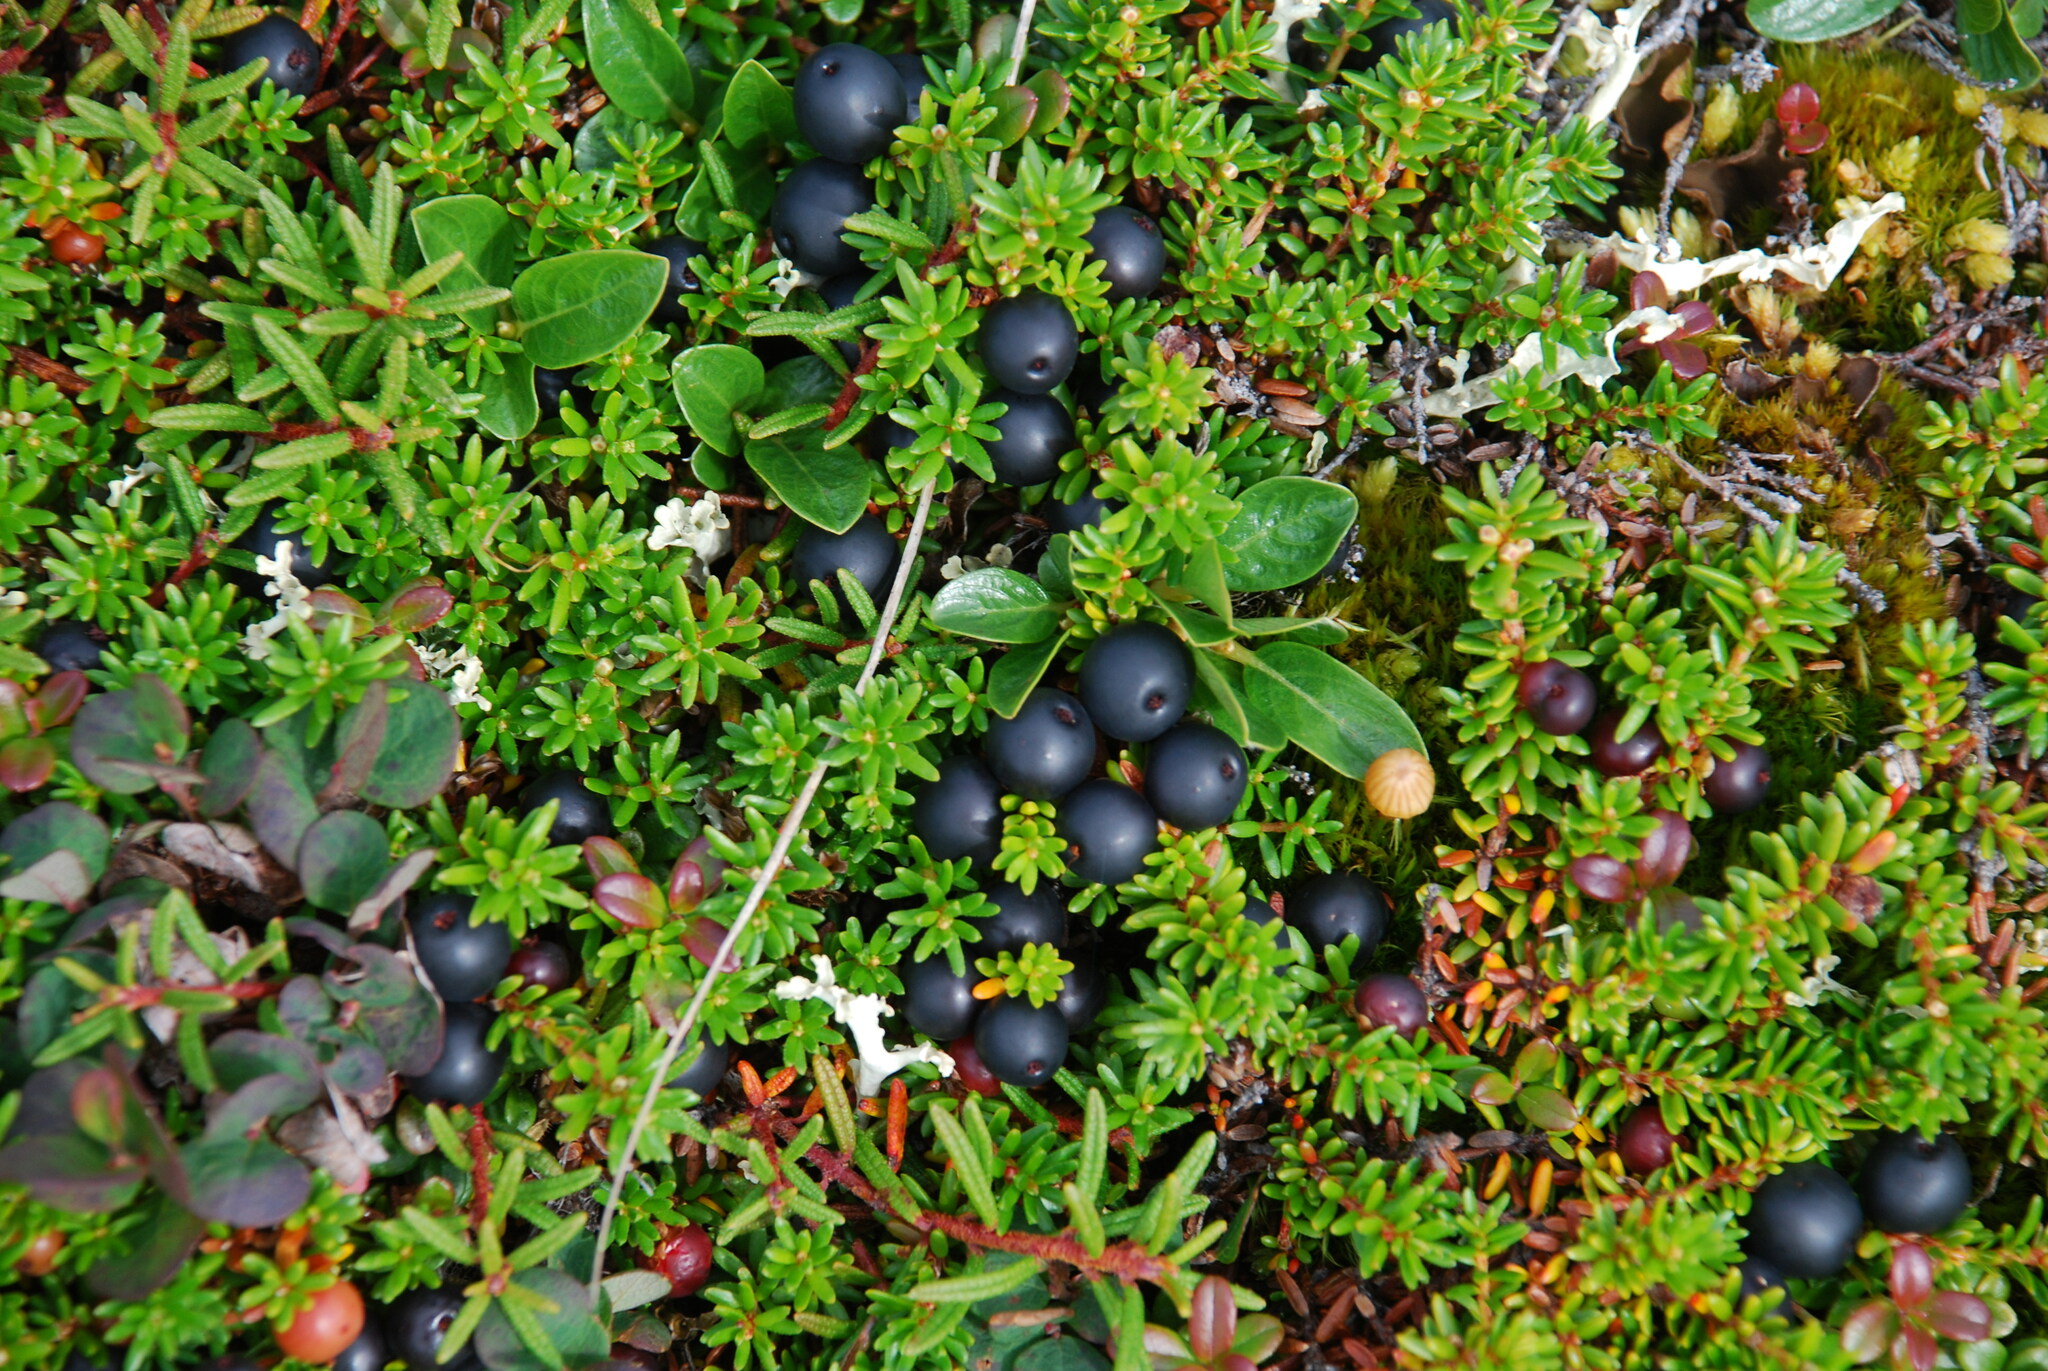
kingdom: Plantae
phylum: Tracheophyta
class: Magnoliopsida
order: Ericales
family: Ericaceae
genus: Empetrum
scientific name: Empetrum nigrum
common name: Black crowberry
